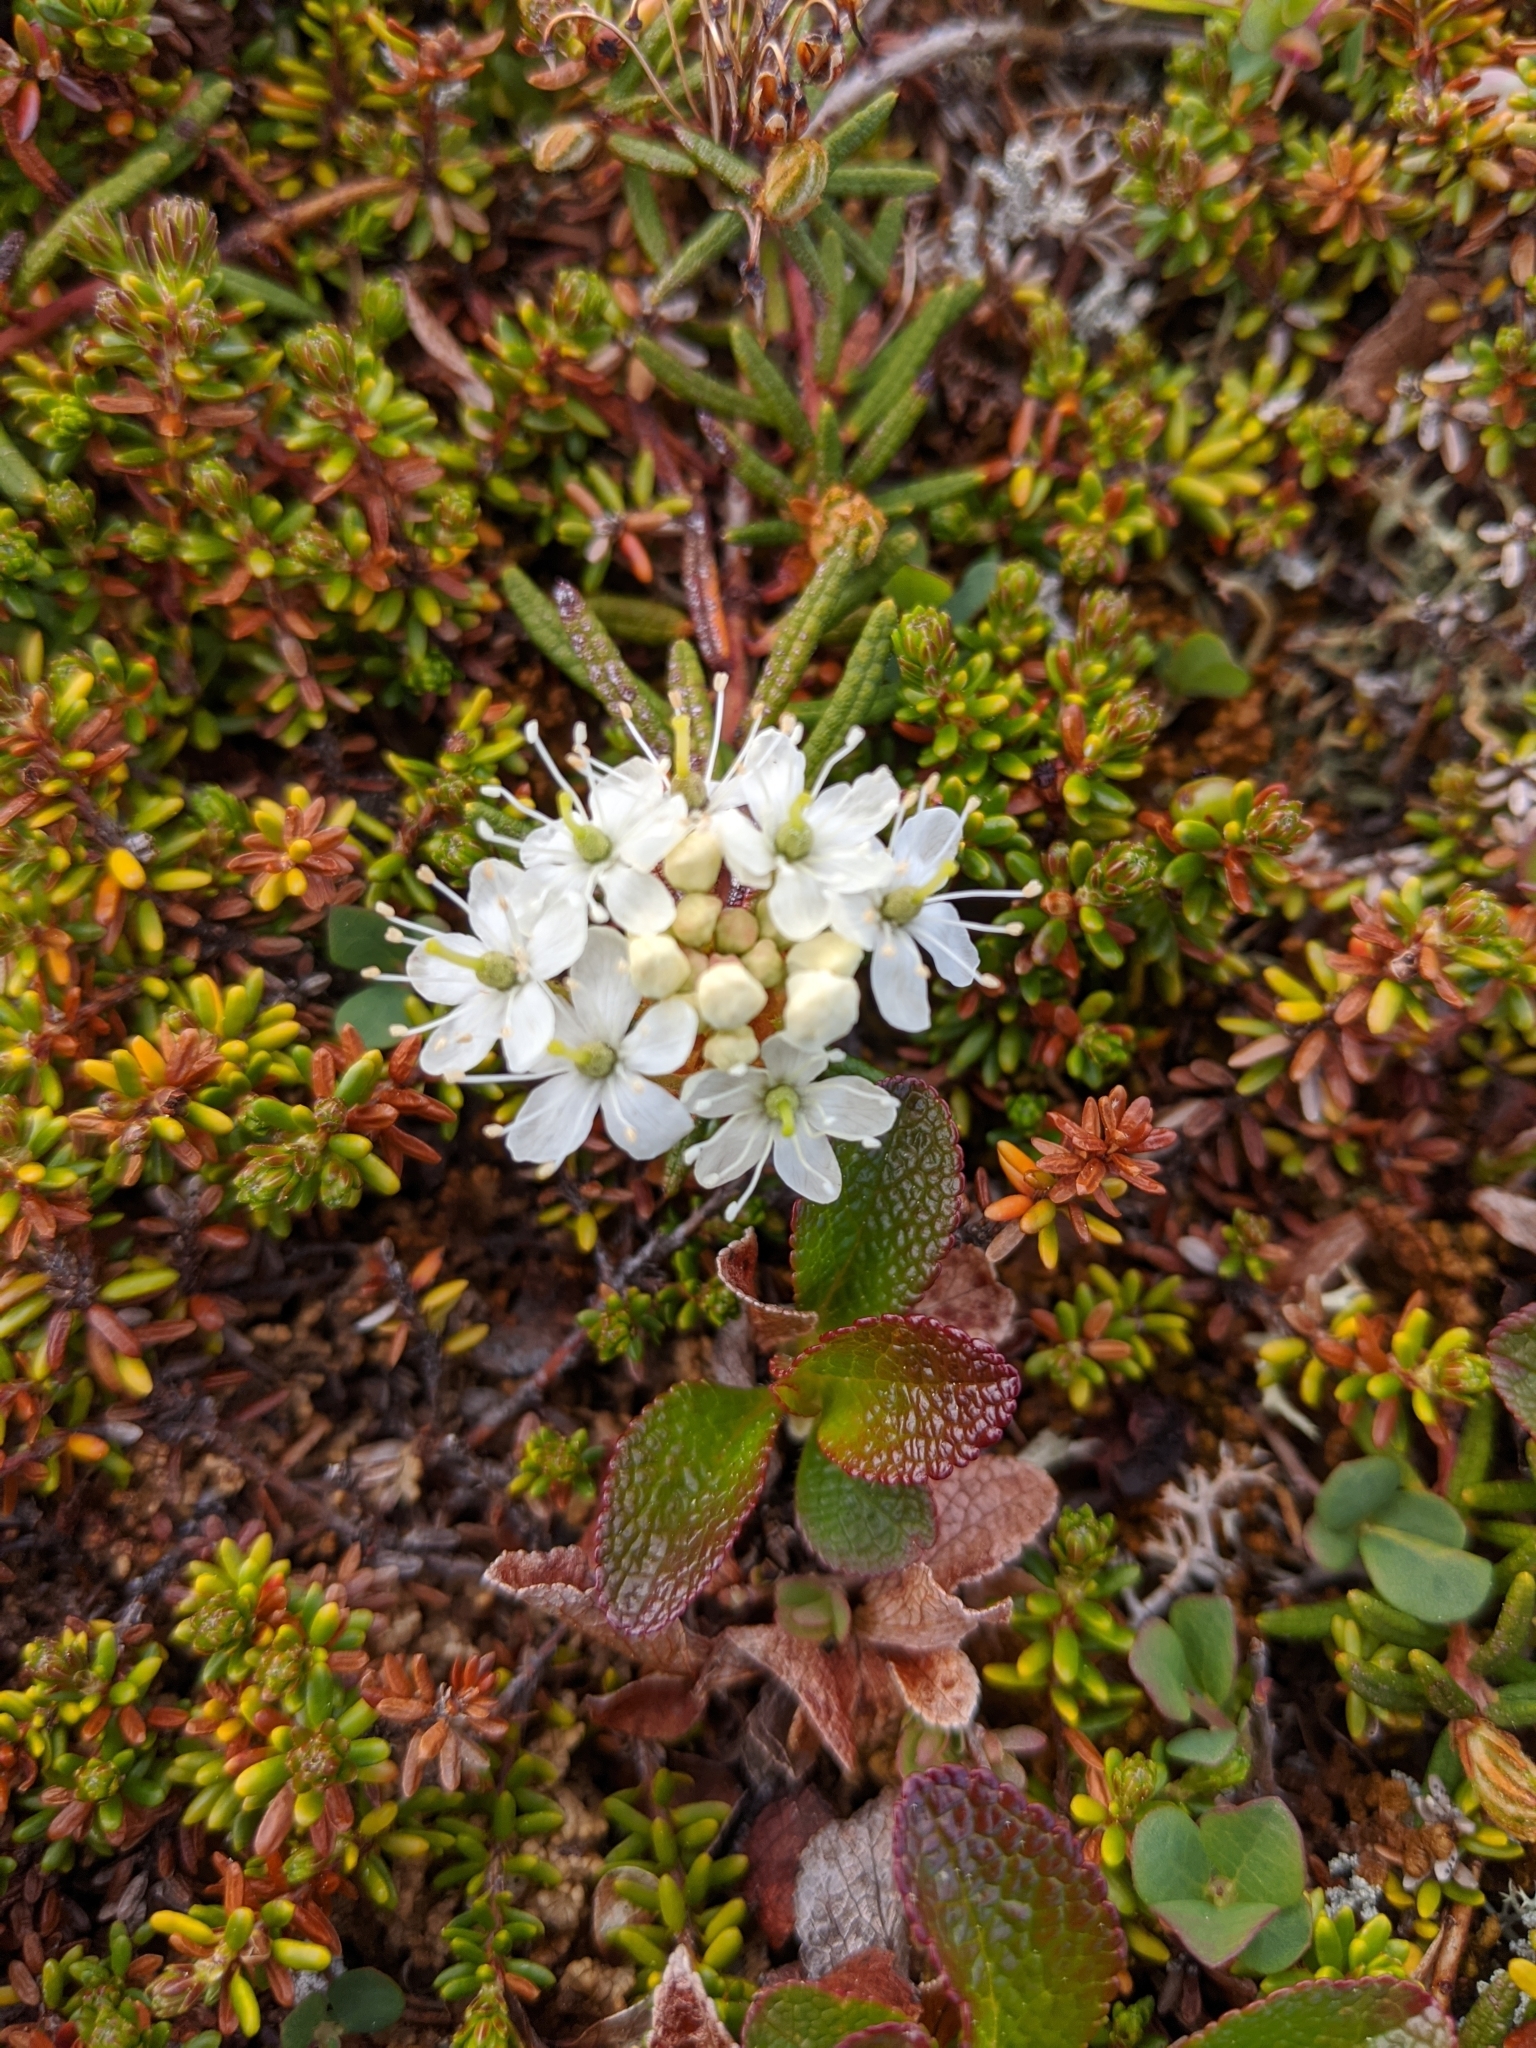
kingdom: Plantae
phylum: Tracheophyta
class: Magnoliopsida
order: Ericales
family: Ericaceae
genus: Rhododendron
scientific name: Rhododendron tomentosum
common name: Marsh labrador tea
